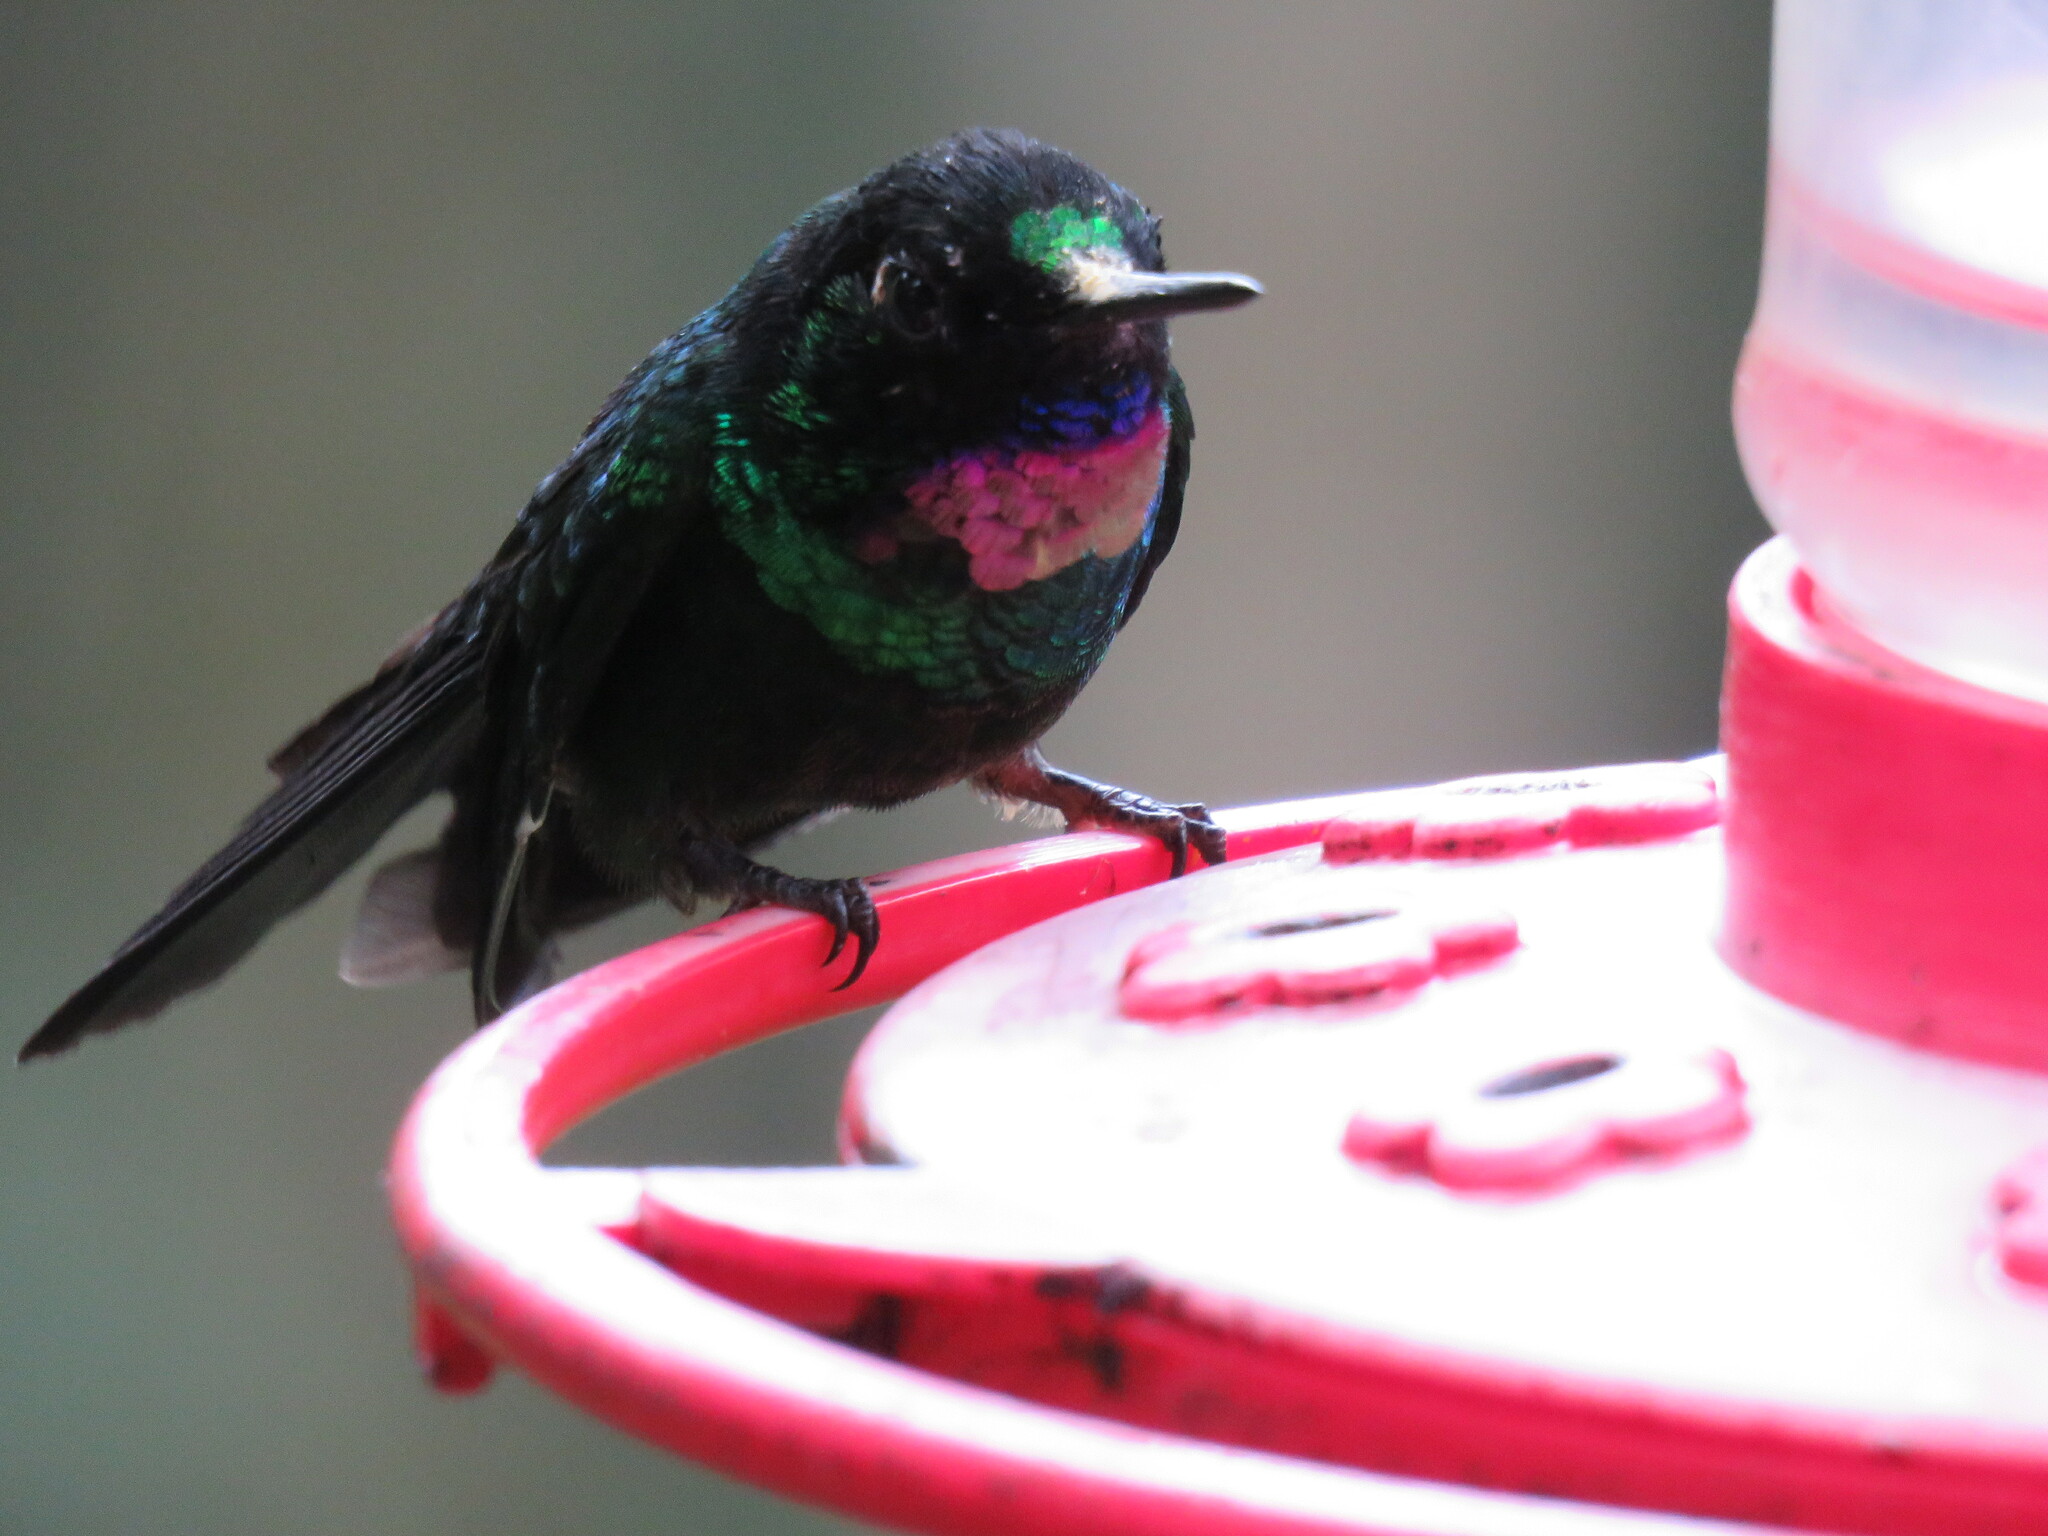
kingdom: Animalia
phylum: Chordata
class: Aves
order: Apodiformes
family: Trochilidae
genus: Heliangelus
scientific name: Heliangelus exortis
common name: Tourmaline sunangel
